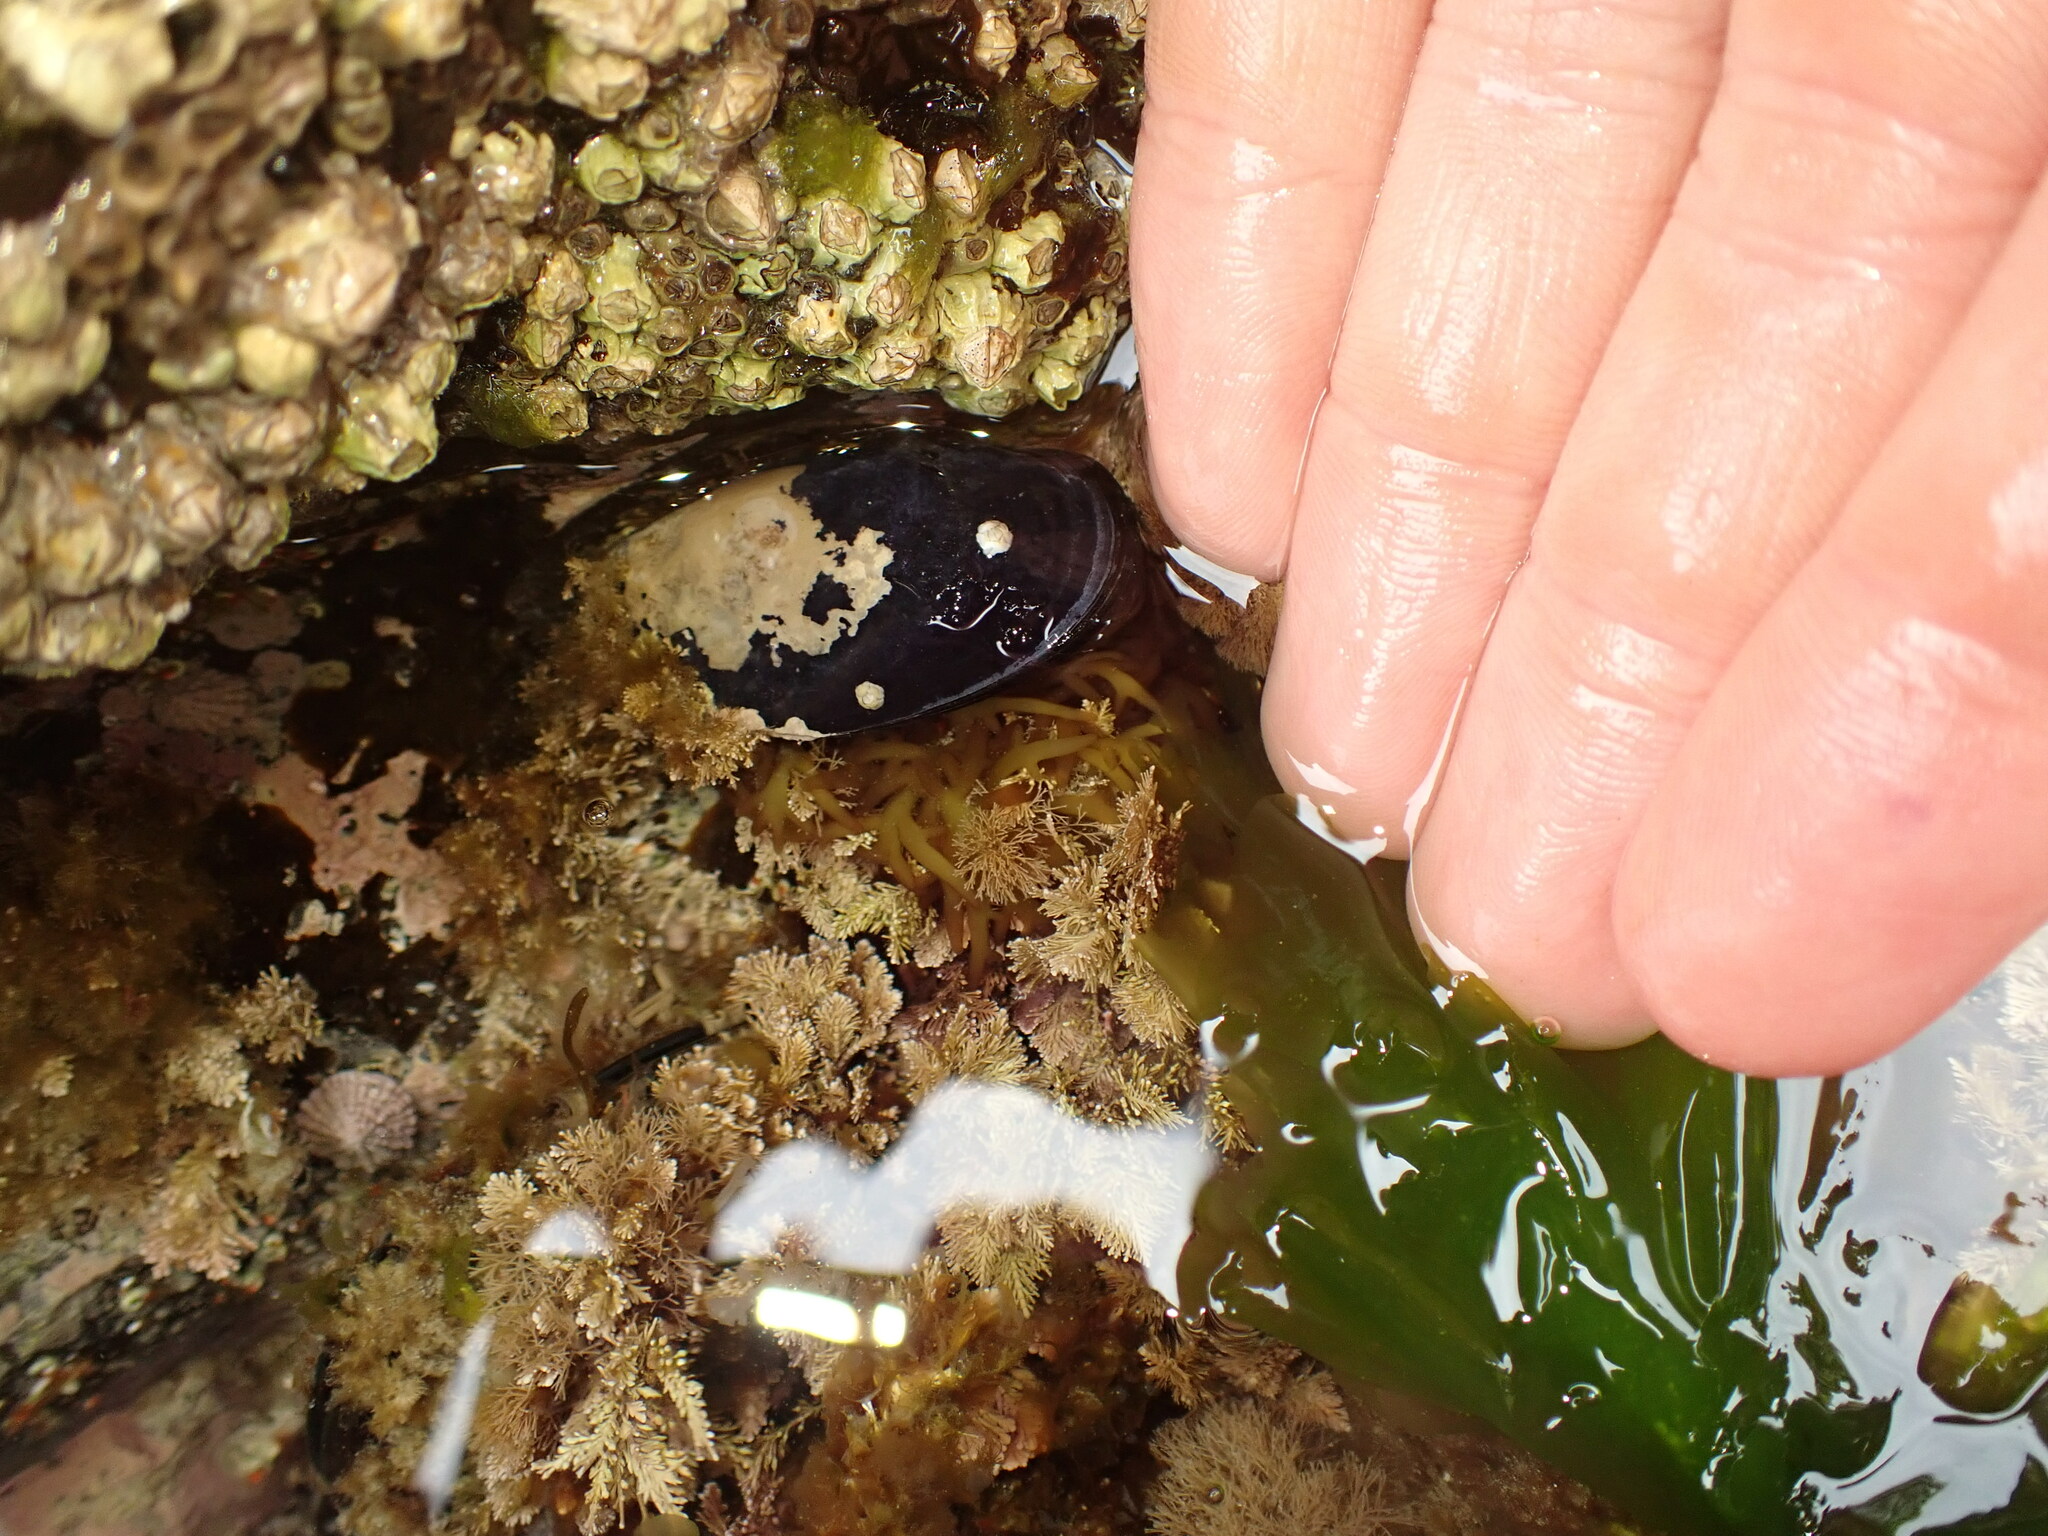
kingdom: Animalia
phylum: Mollusca
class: Bivalvia
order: Mytilida
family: Mytilidae
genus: Mytilus
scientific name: Mytilus planulatus
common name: Australian mussel
